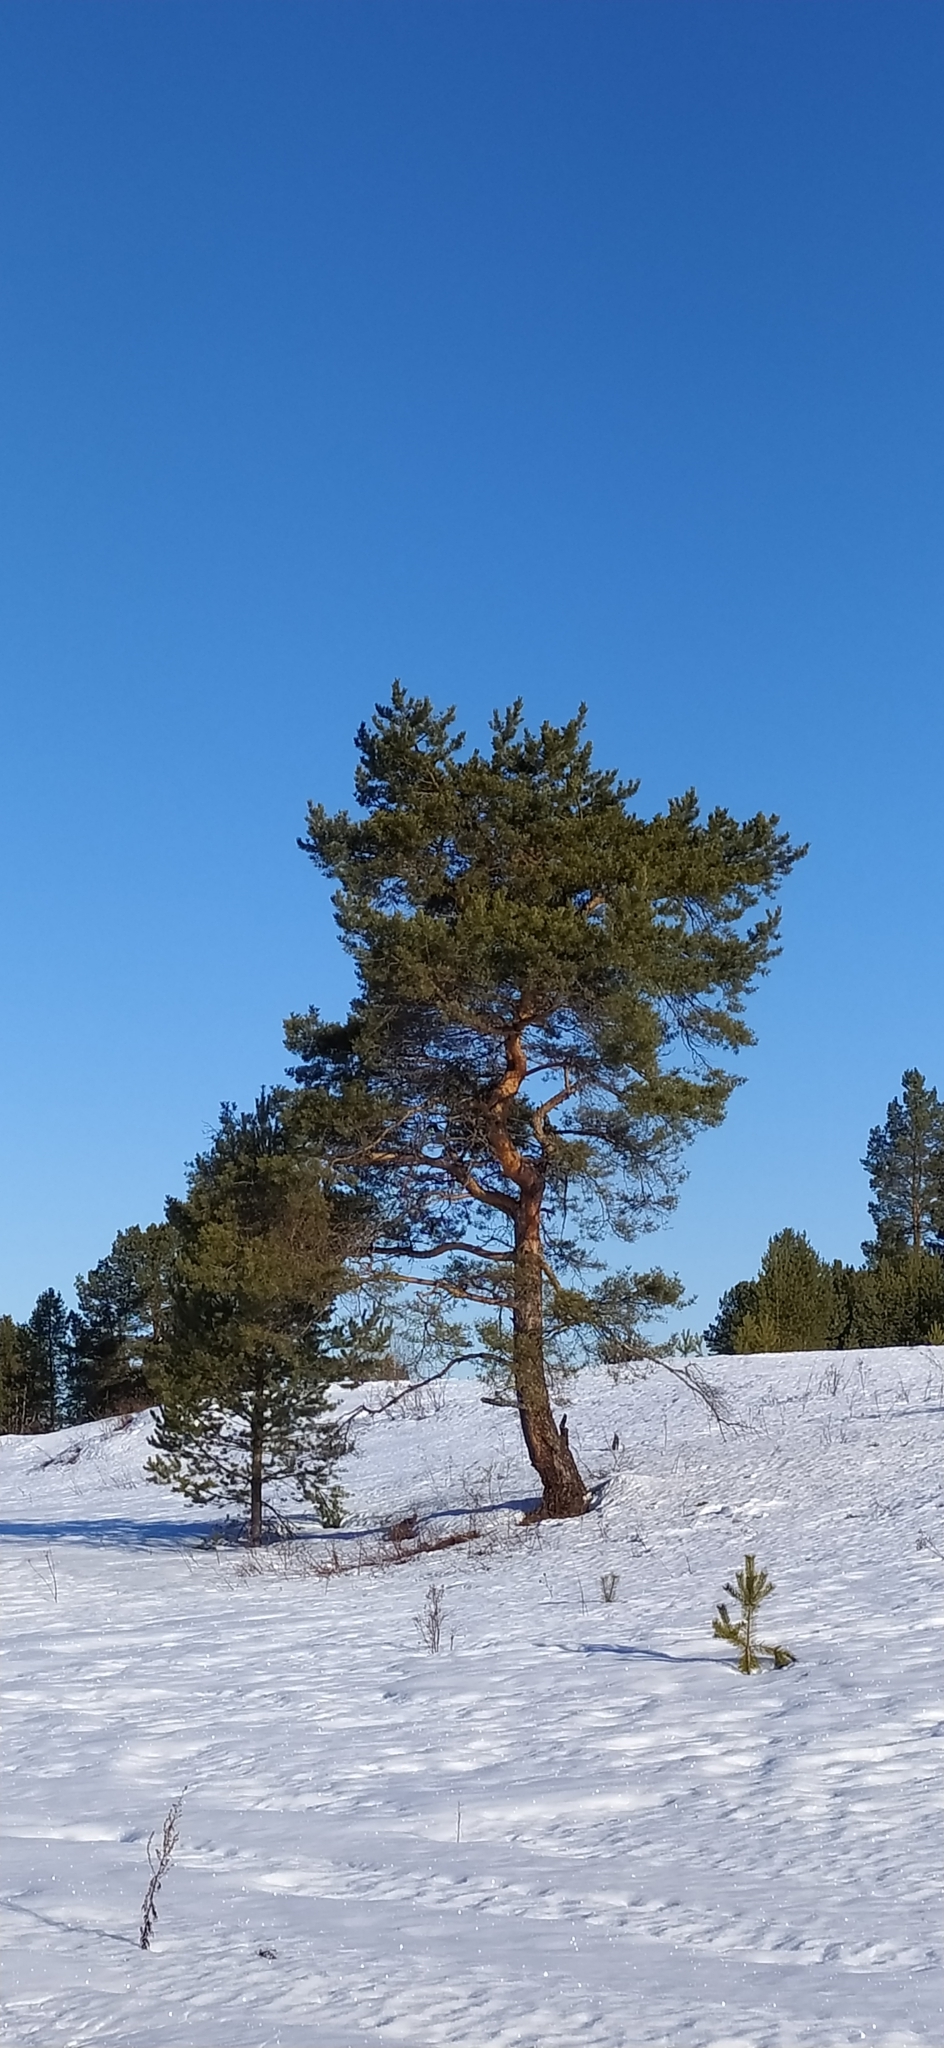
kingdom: Plantae
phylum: Tracheophyta
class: Pinopsida
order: Pinales
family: Pinaceae
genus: Pinus
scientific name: Pinus sylvestris
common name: Scots pine
